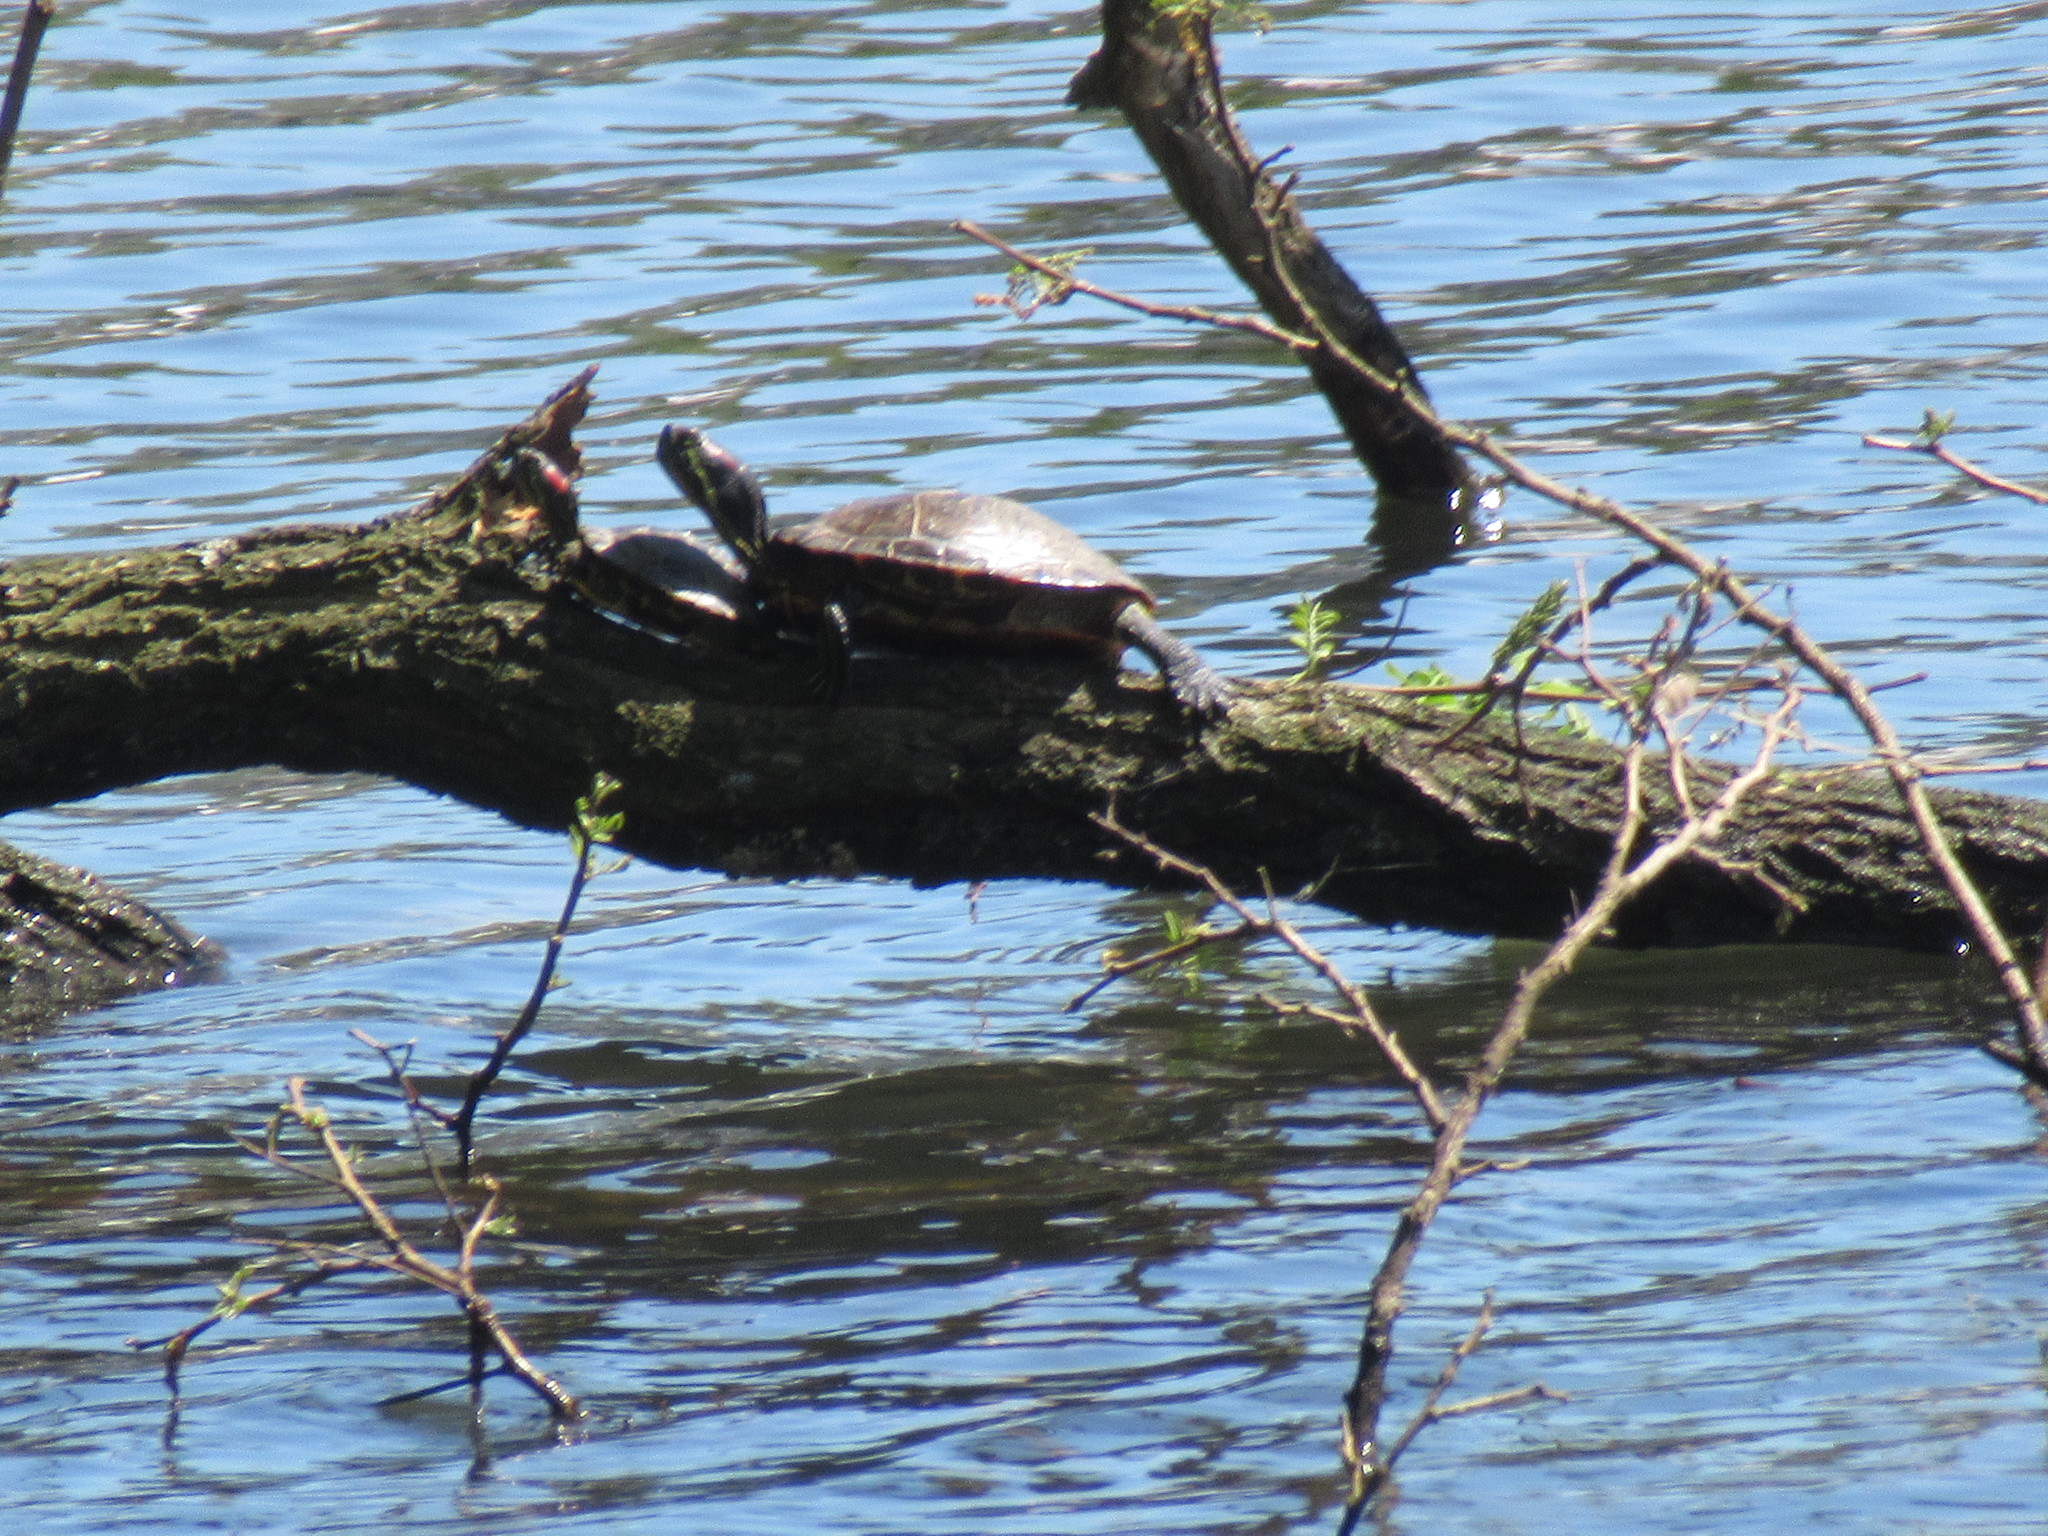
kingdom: Animalia
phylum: Chordata
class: Testudines
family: Emydidae
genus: Trachemys
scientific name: Trachemys scripta
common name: Slider
